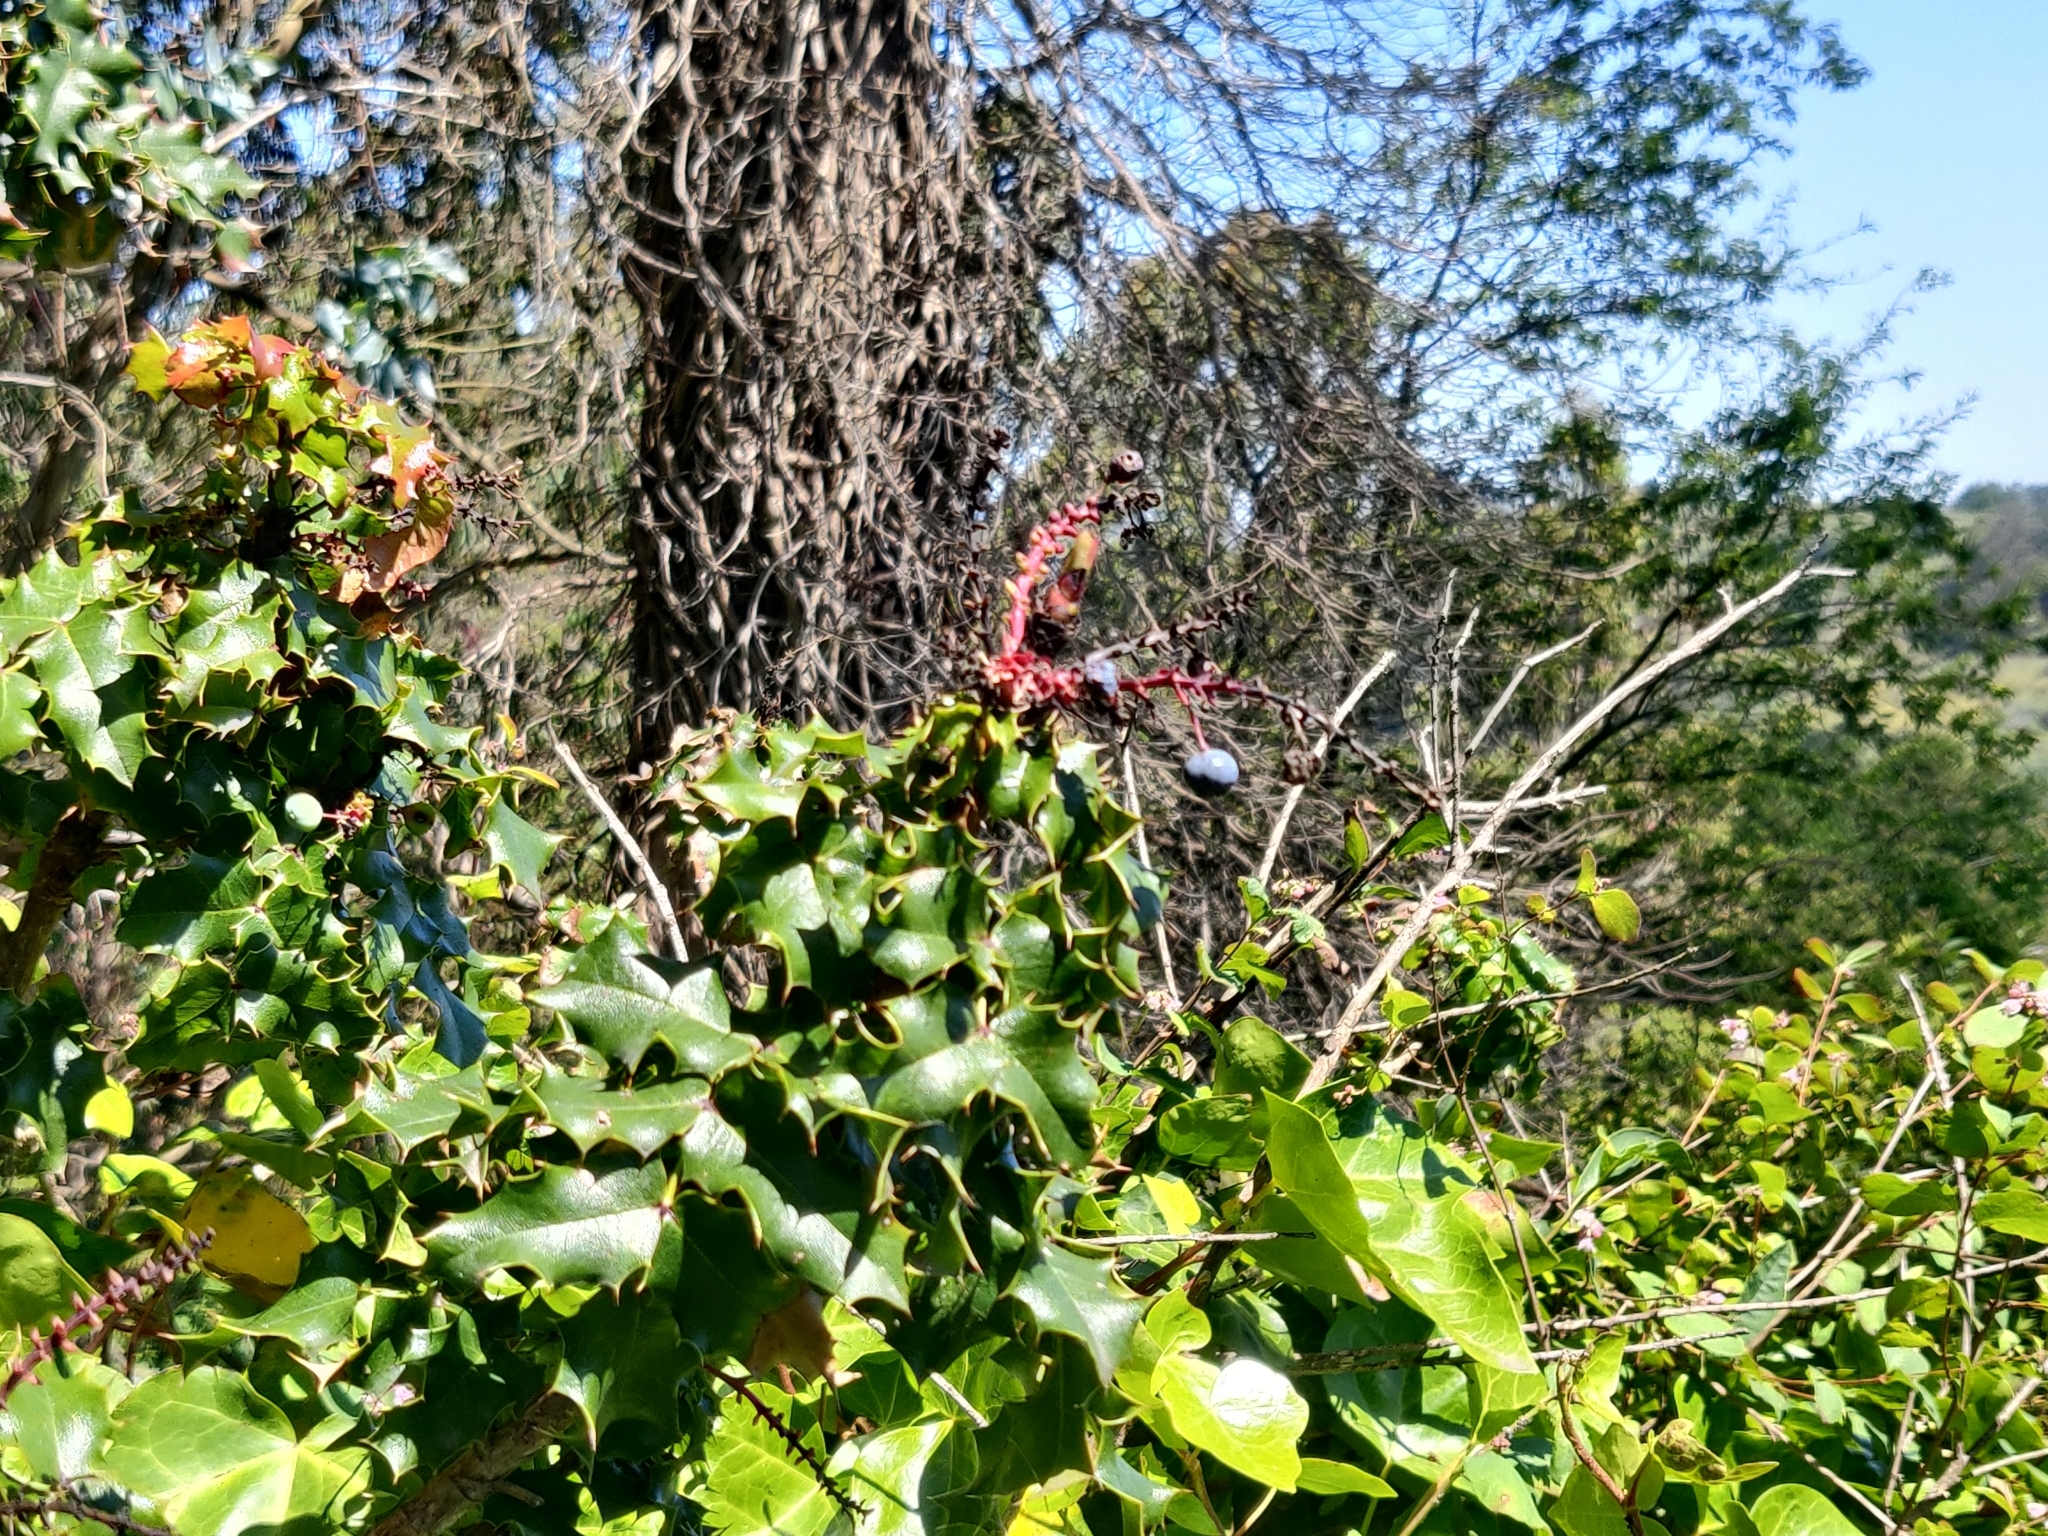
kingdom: Plantae
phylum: Tracheophyta
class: Magnoliopsida
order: Ranunculales
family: Berberidaceae
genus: Mahonia
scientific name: Mahonia
